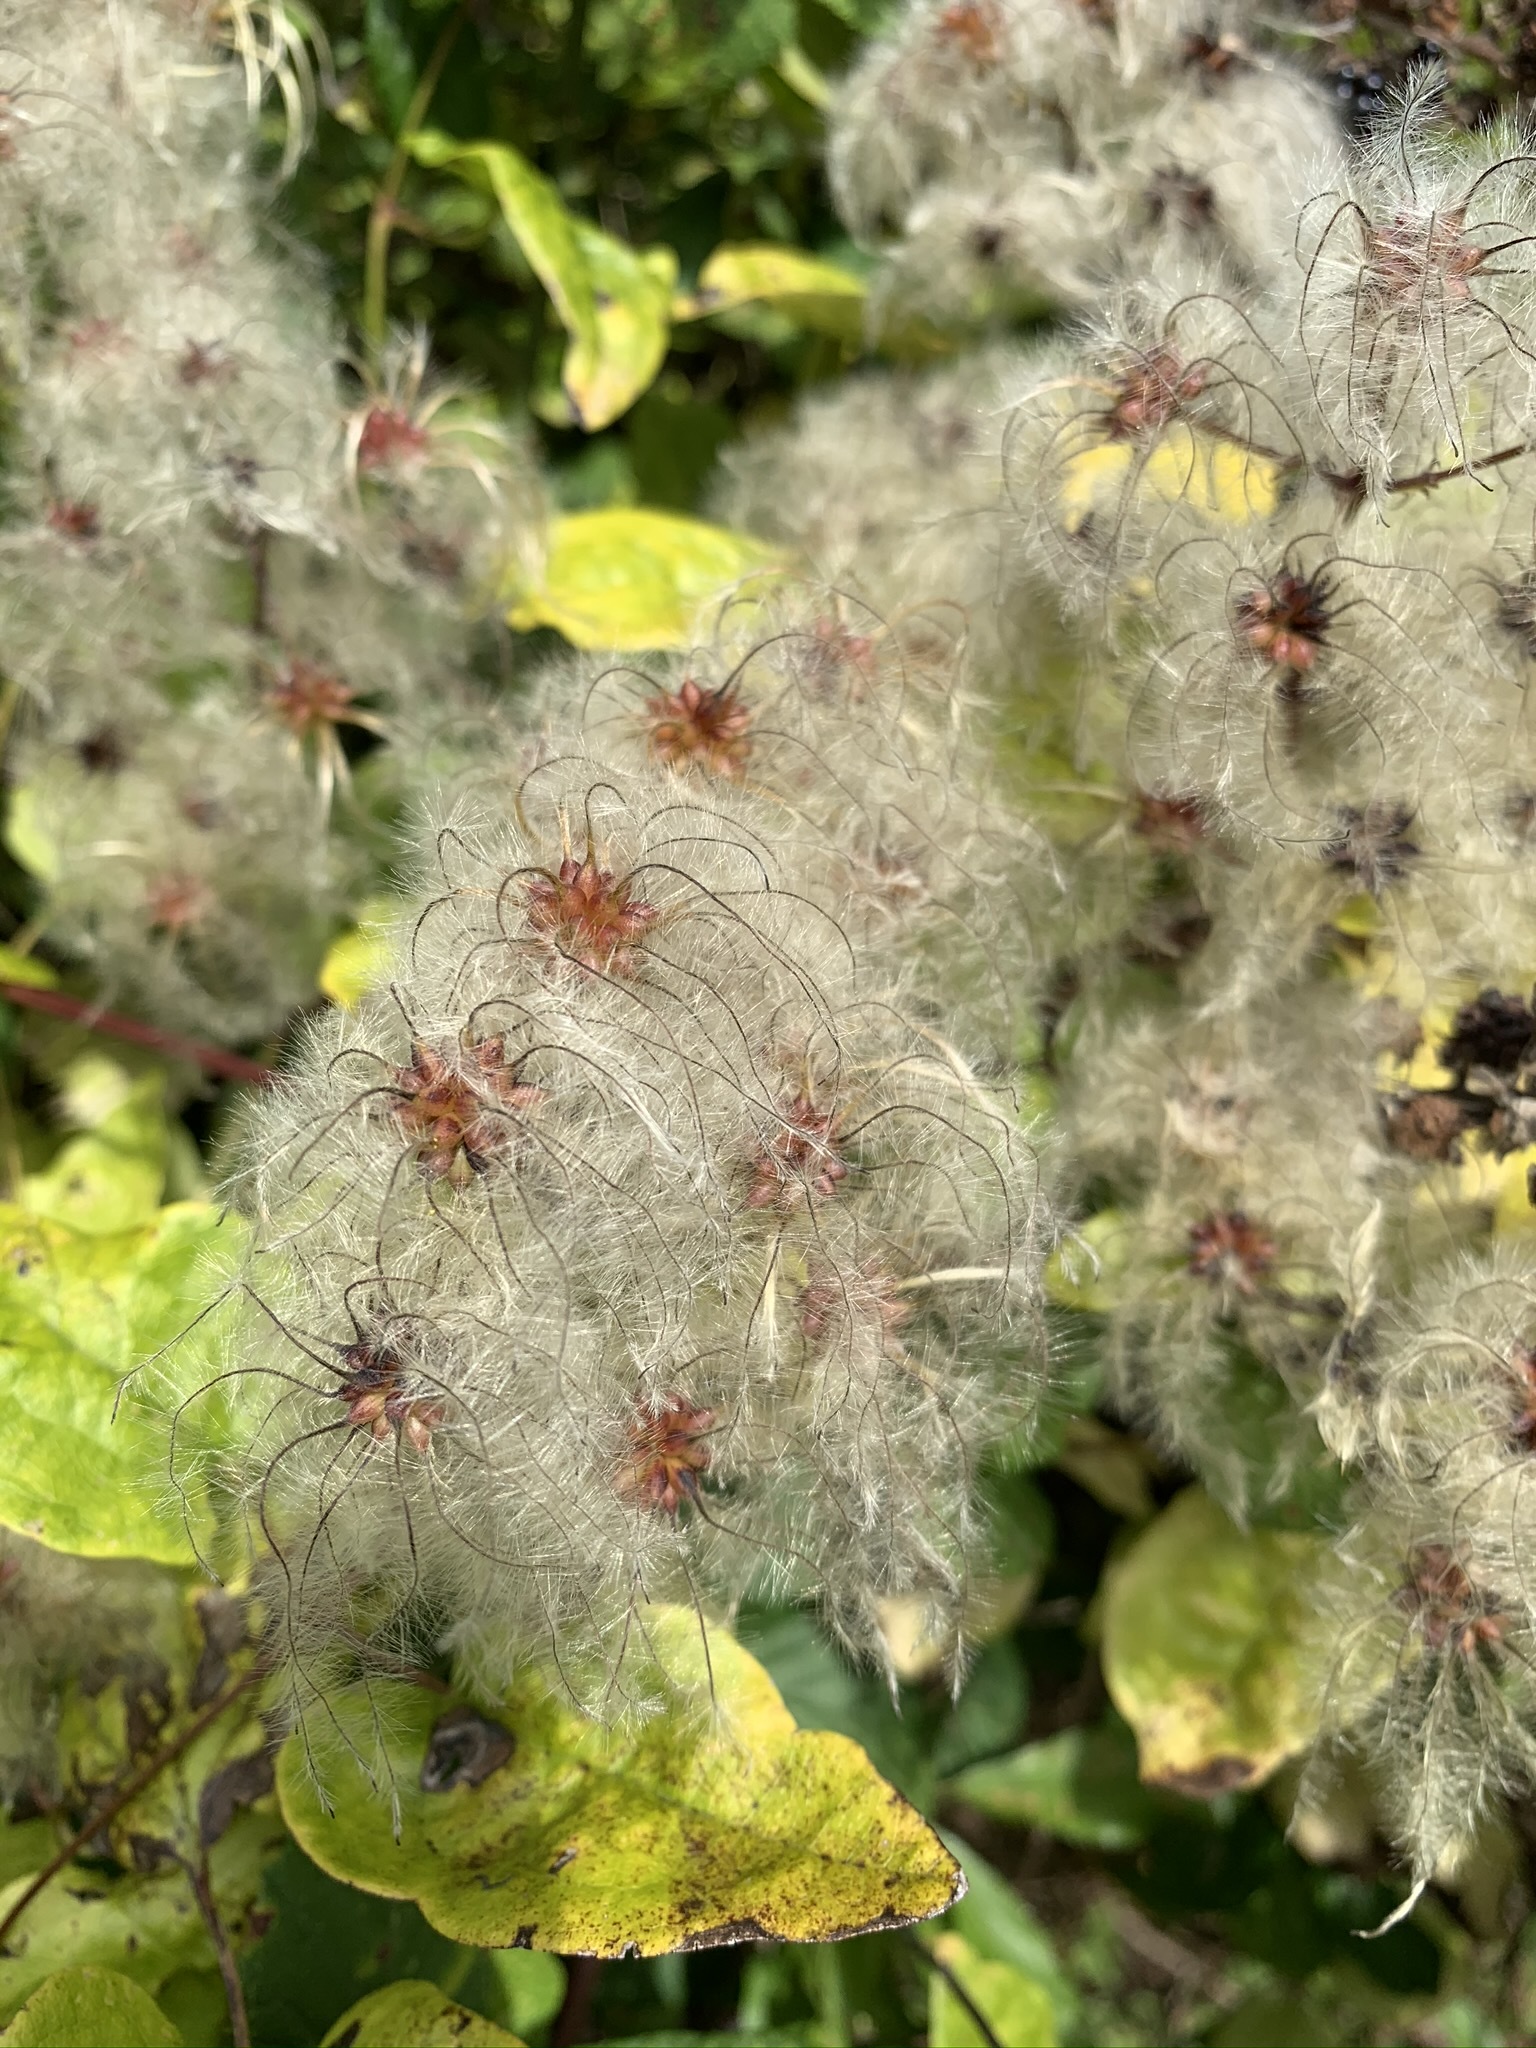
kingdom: Plantae
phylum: Tracheophyta
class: Magnoliopsida
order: Ranunculales
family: Ranunculaceae
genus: Clematis
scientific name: Clematis vitalba
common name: Evergreen clematis
